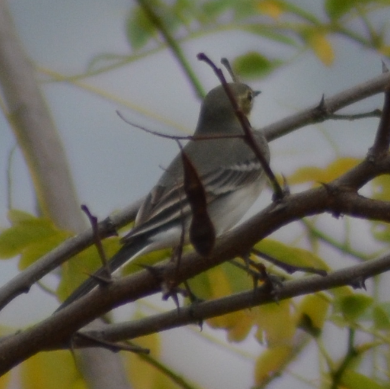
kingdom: Animalia
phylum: Chordata
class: Aves
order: Passeriformes
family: Motacillidae
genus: Motacilla
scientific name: Motacilla alba
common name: White wagtail
